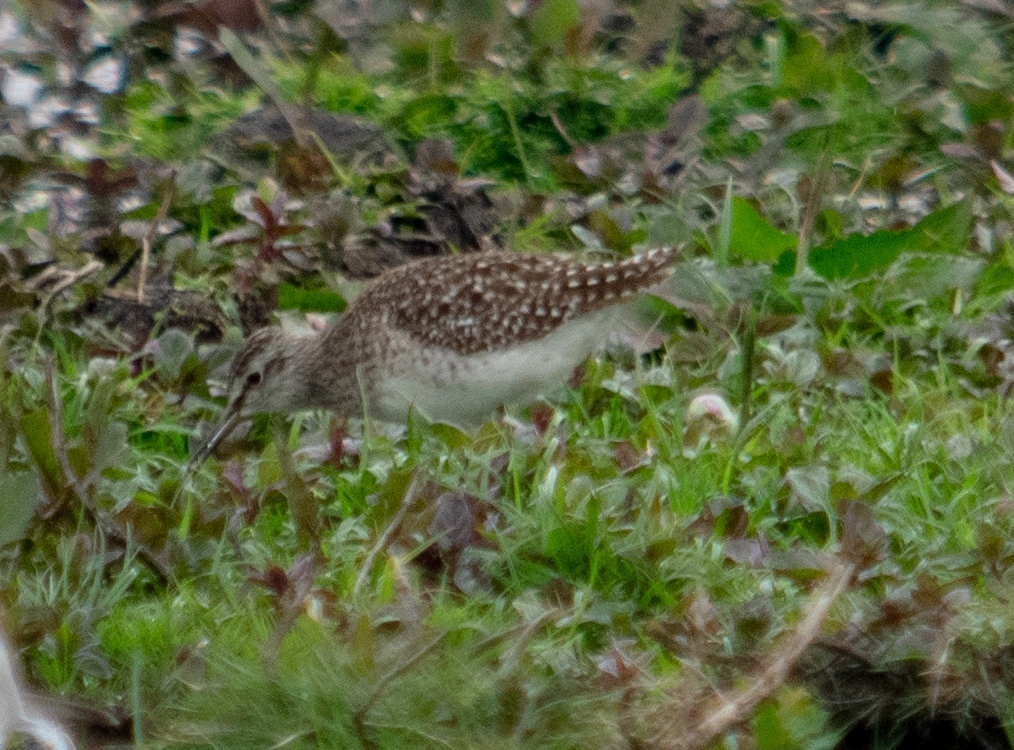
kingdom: Animalia
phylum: Chordata
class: Aves
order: Charadriiformes
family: Scolopacidae
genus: Tringa
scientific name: Tringa glareola
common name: Wood sandpiper
